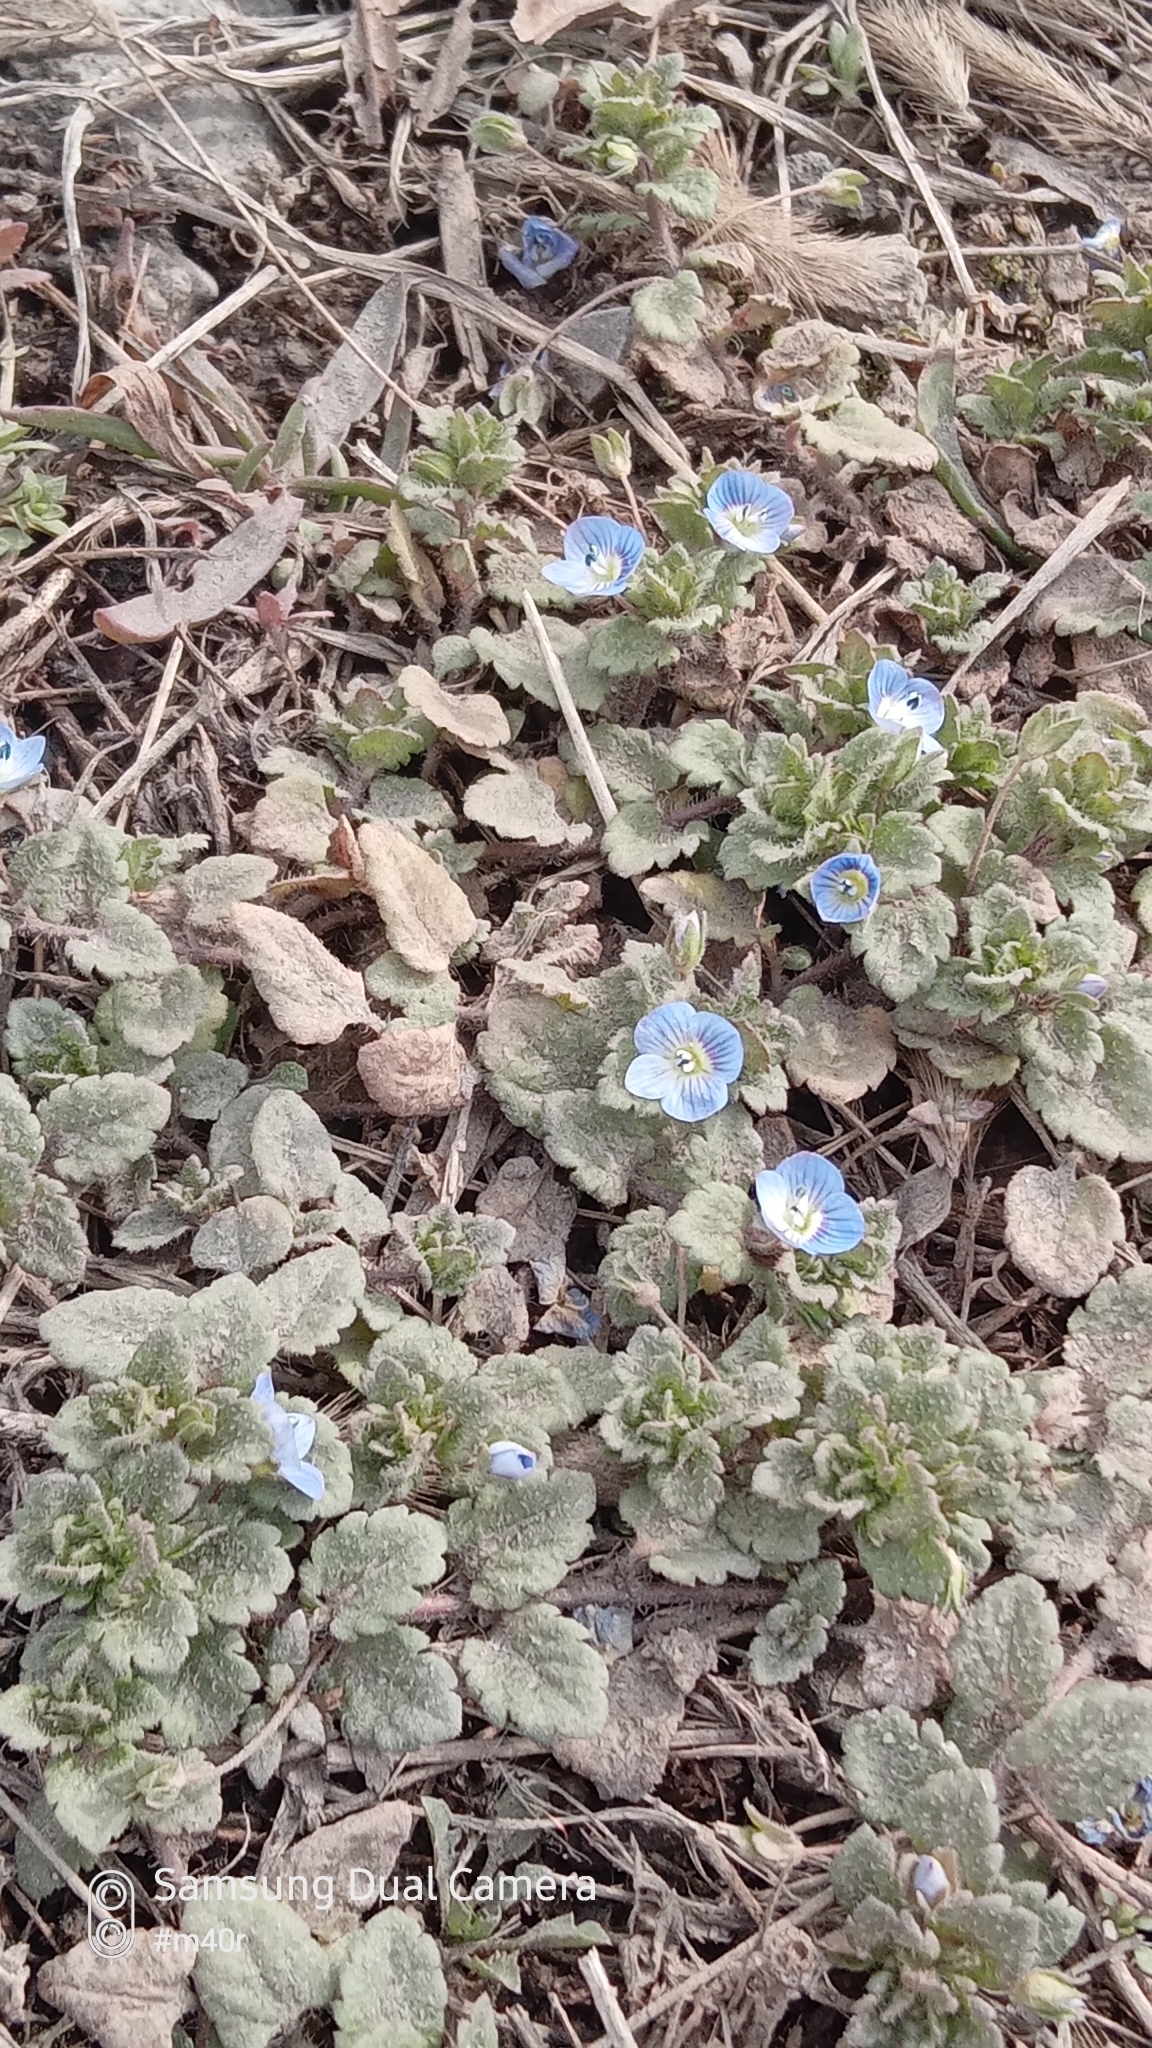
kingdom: Plantae
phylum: Tracheophyta
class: Magnoliopsida
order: Lamiales
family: Plantaginaceae
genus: Veronica
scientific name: Veronica persica
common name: Common field-speedwell
